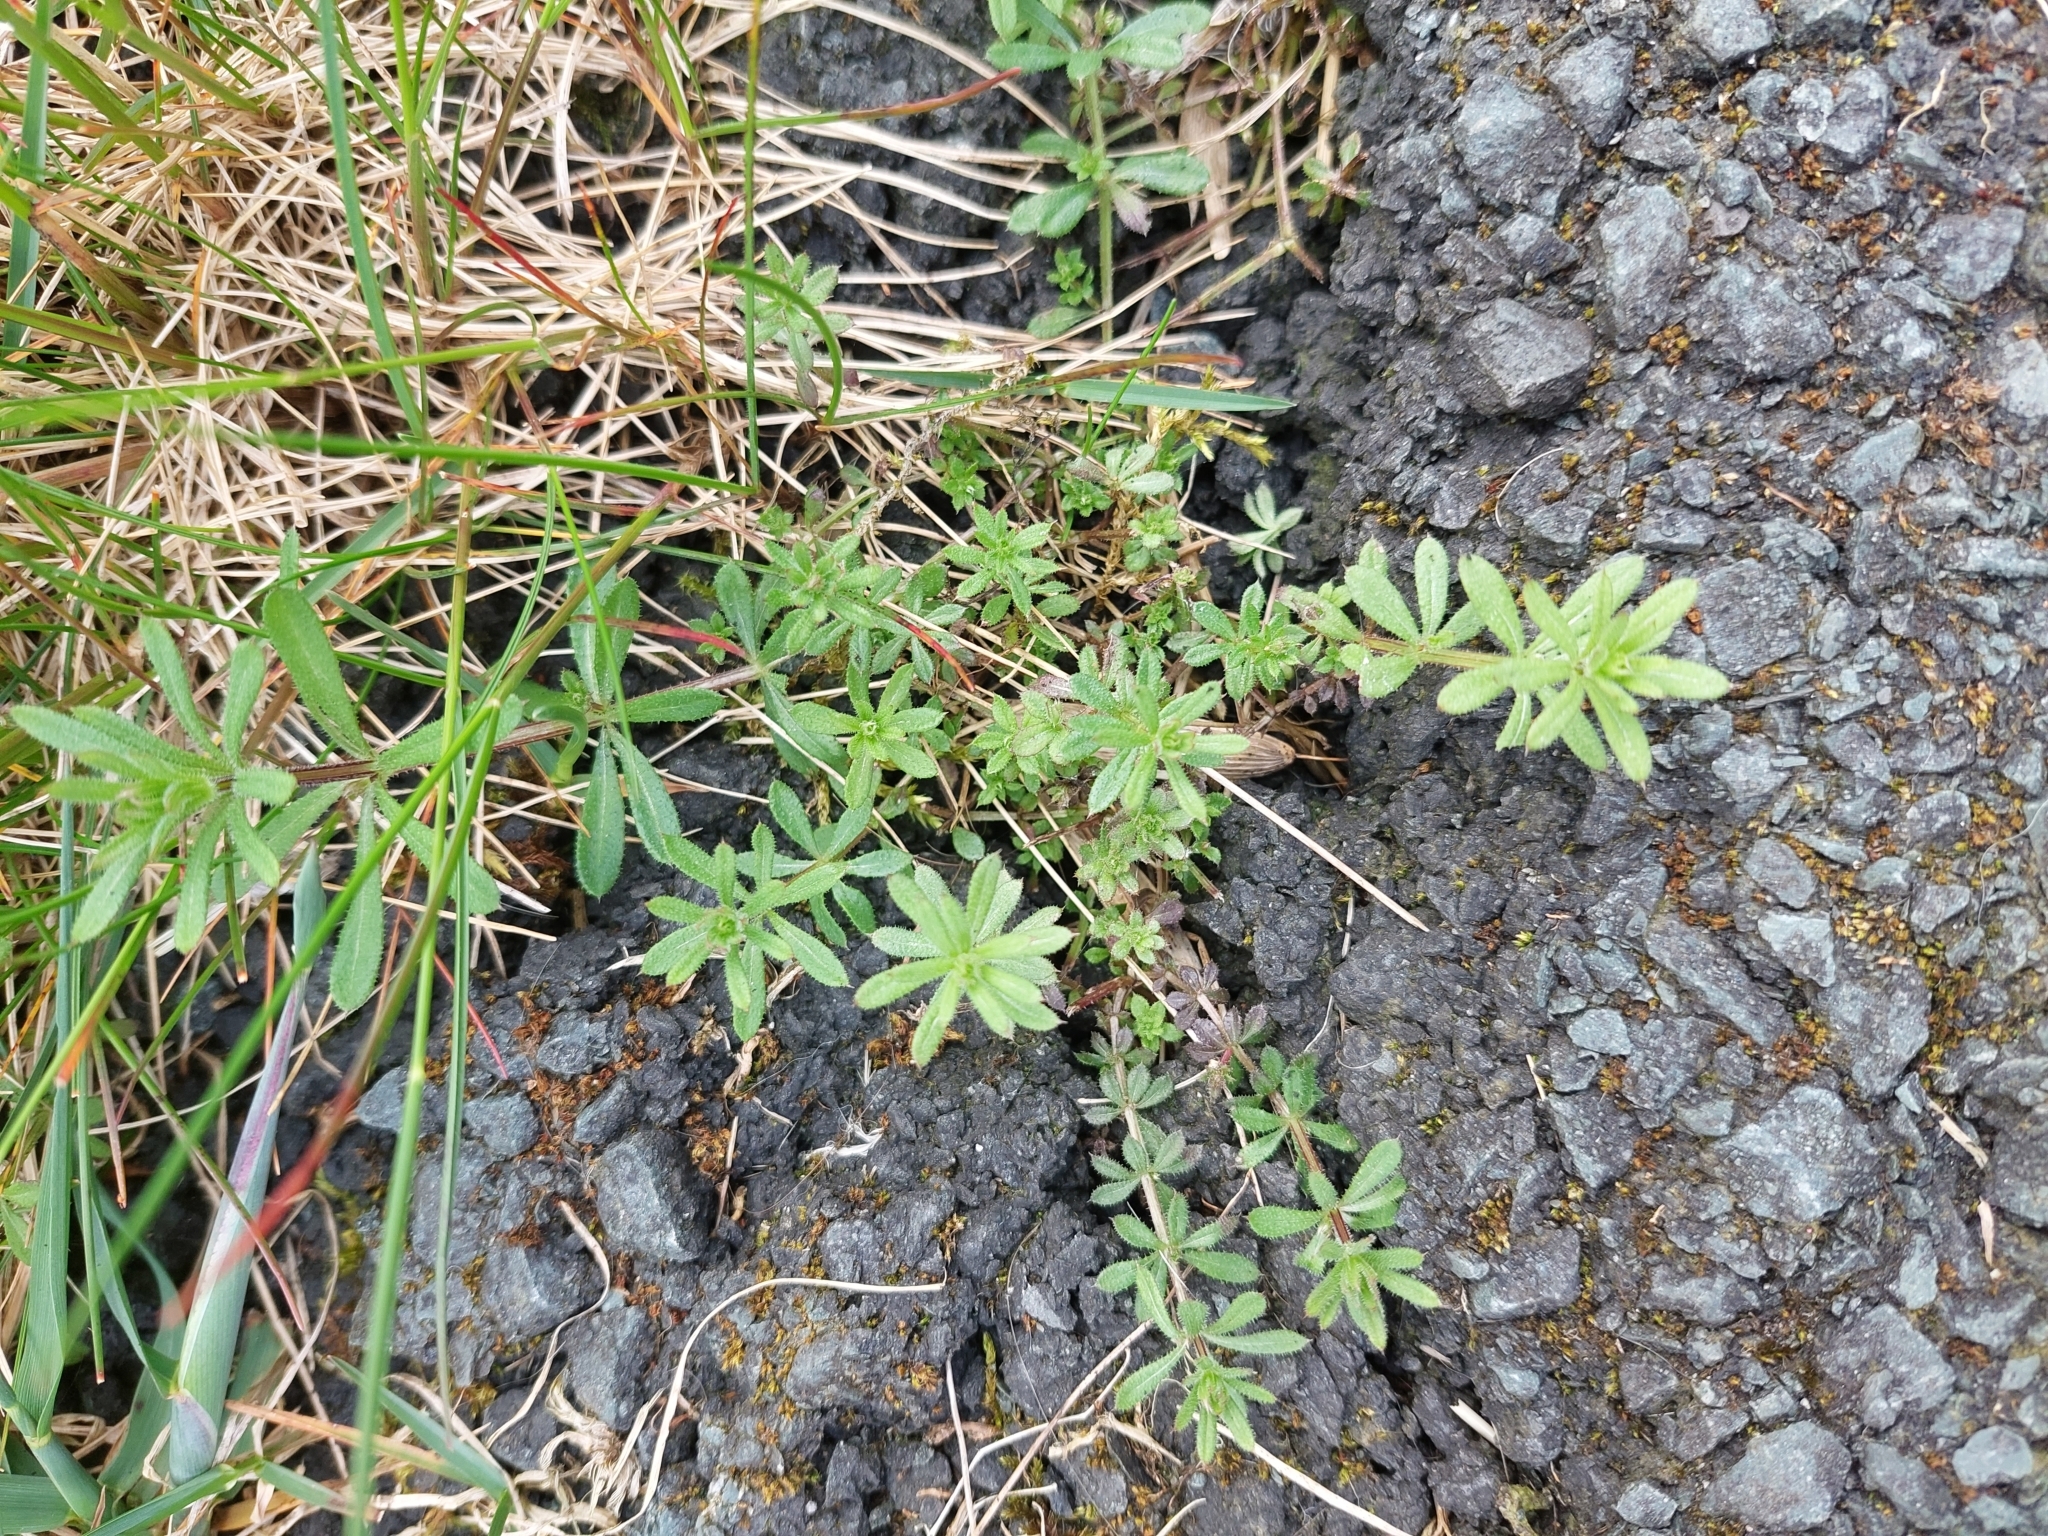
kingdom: Plantae
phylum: Tracheophyta
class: Magnoliopsida
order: Gentianales
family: Rubiaceae
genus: Galium
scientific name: Galium aparine
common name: Cleavers
